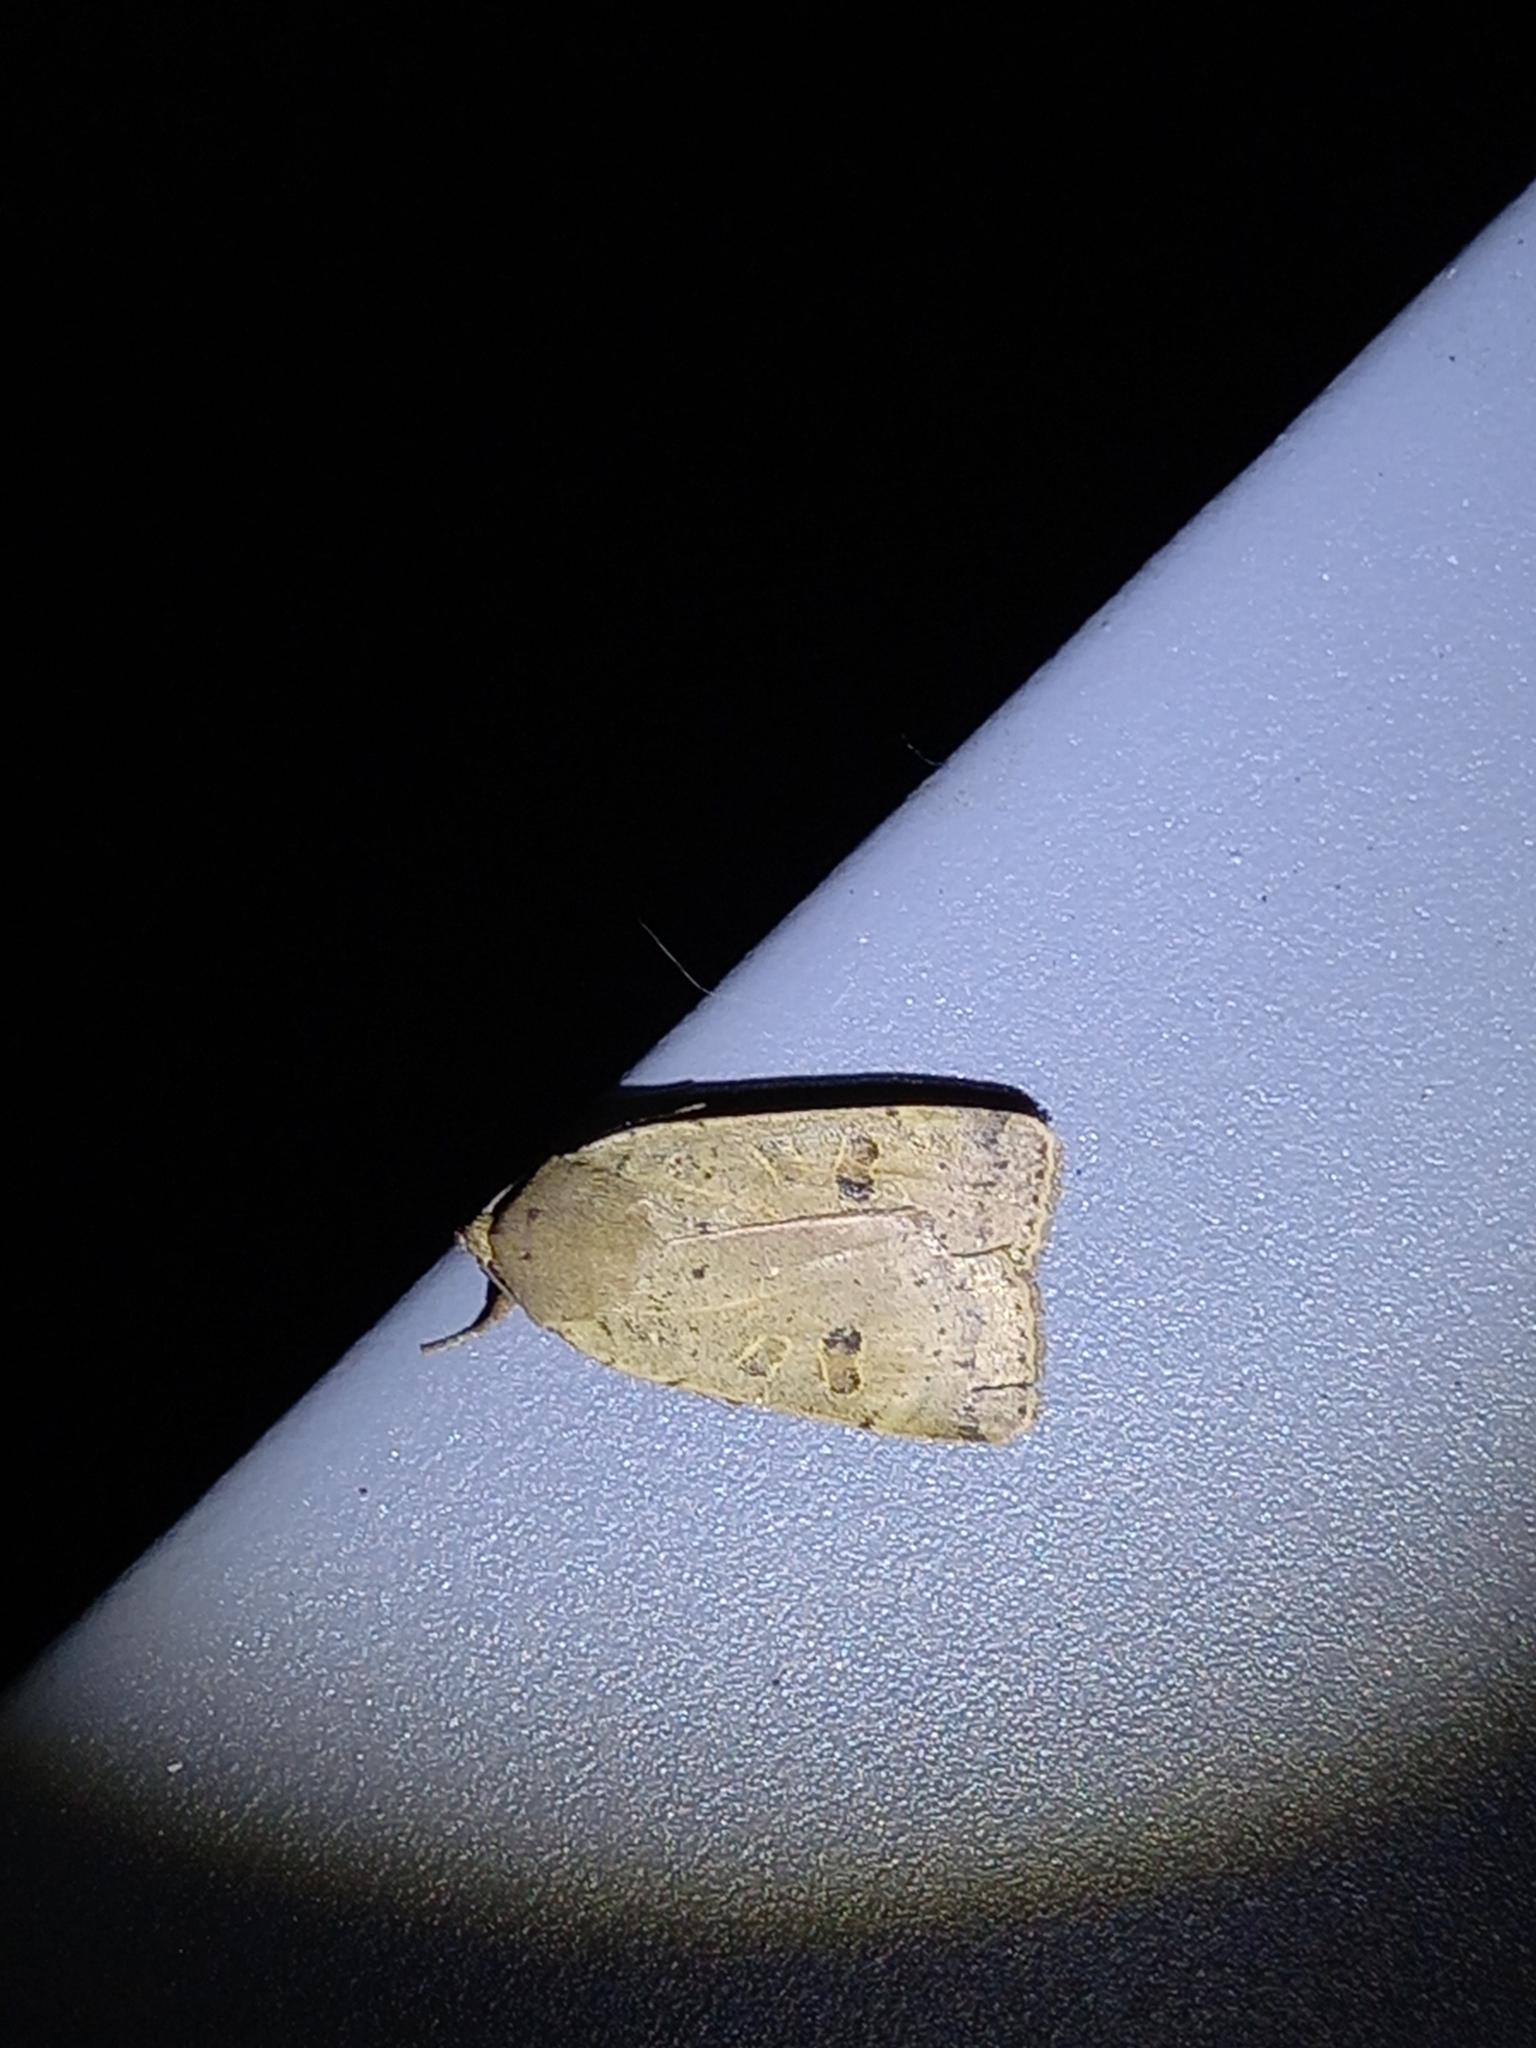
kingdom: Animalia
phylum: Arthropoda
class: Insecta
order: Lepidoptera
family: Noctuidae
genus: Noctua
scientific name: Noctua comes
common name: Lesser yellow underwing
